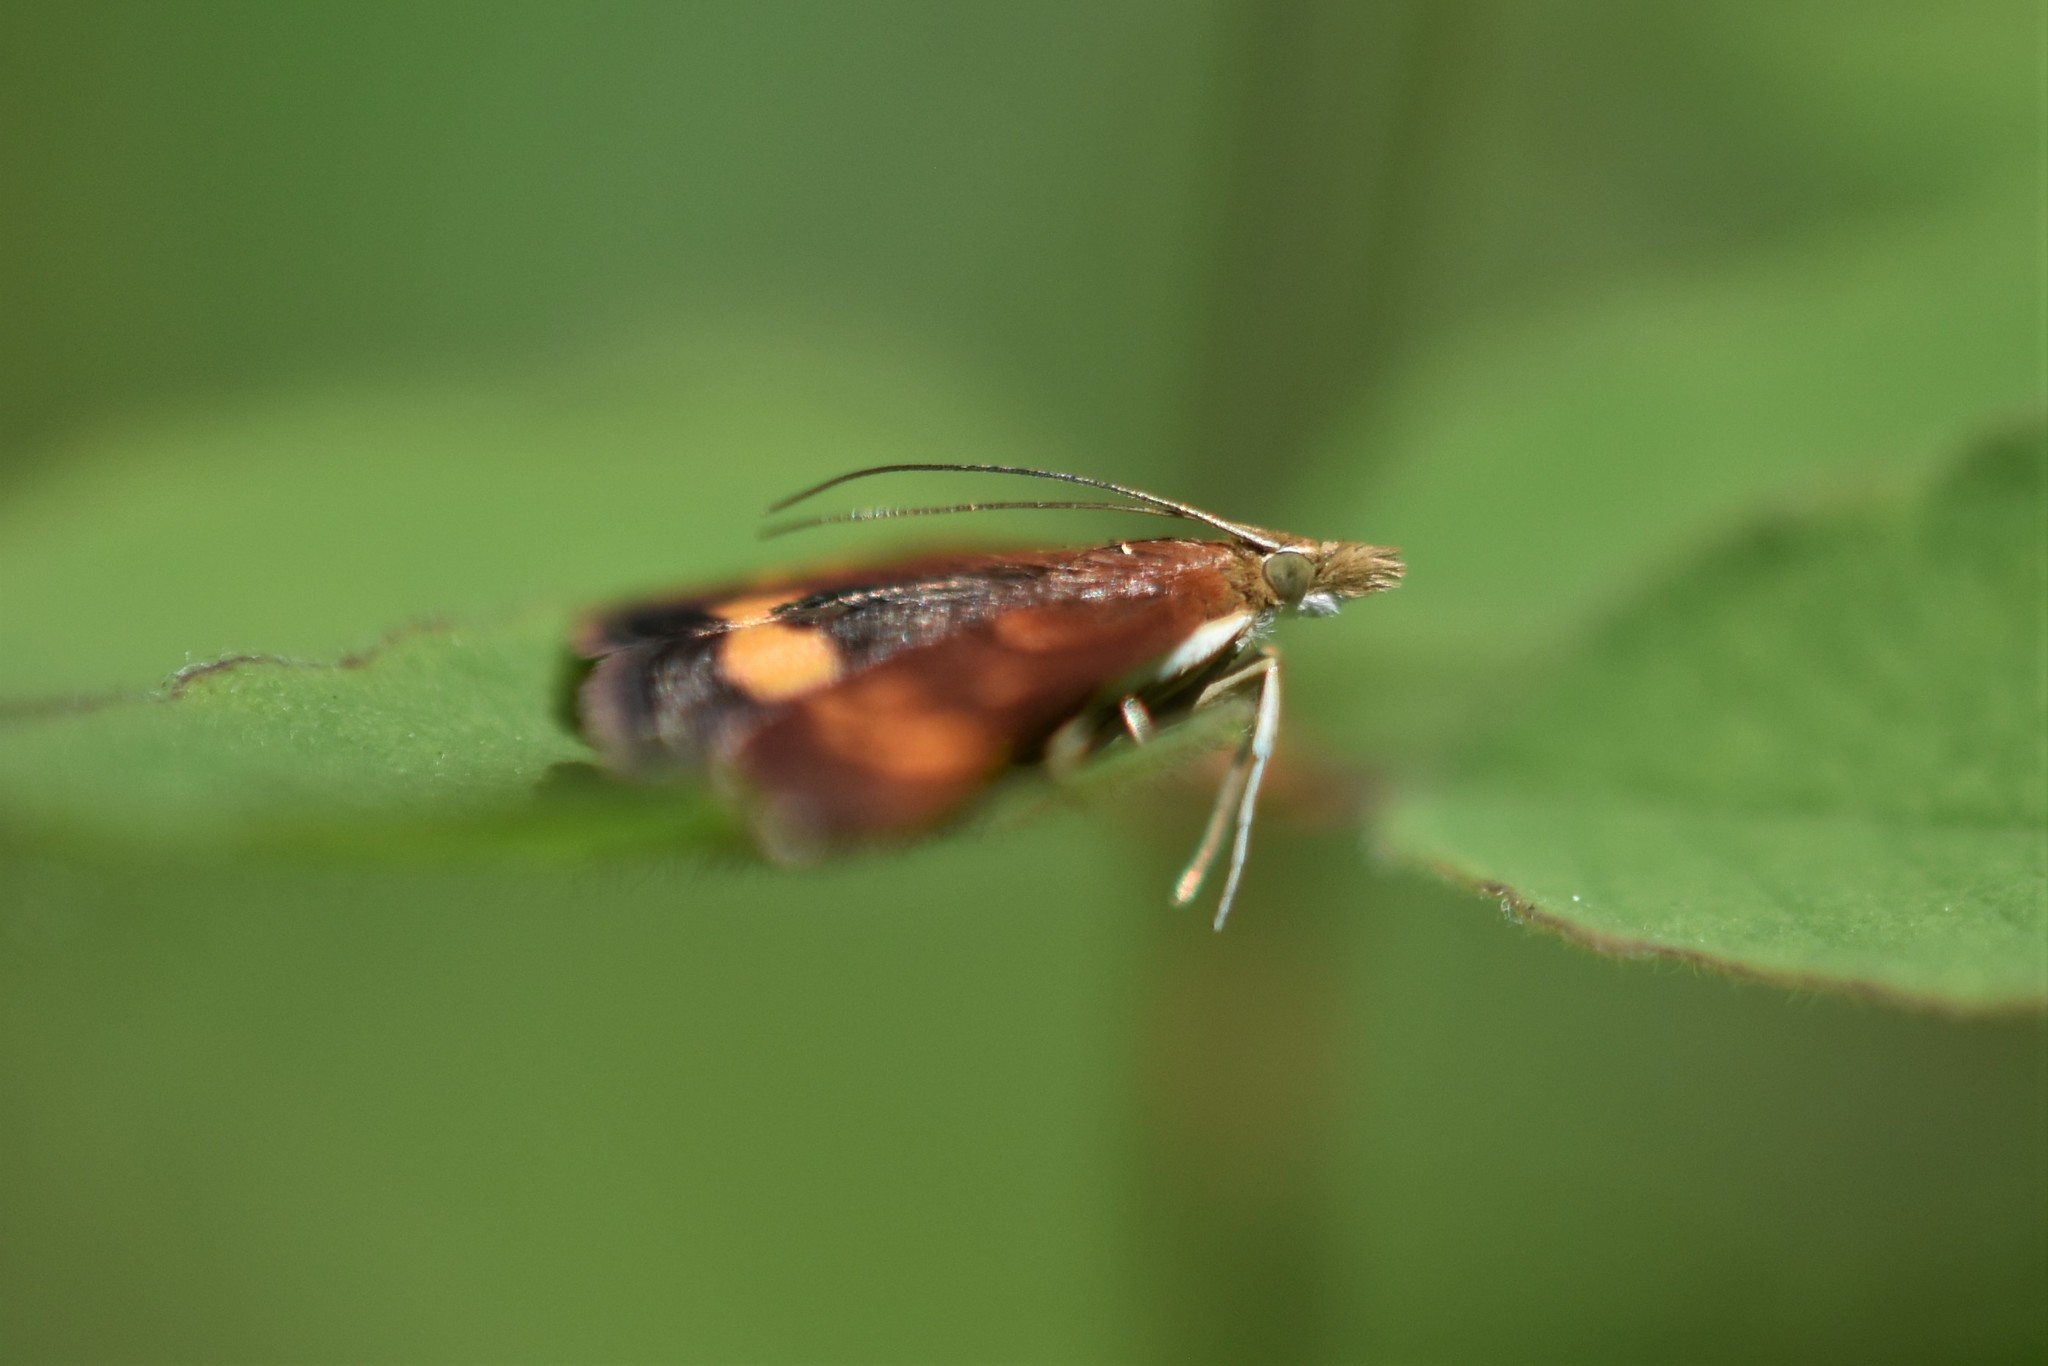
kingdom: Animalia
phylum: Arthropoda
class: Insecta
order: Lepidoptera
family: Crambidae
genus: Pyrausta
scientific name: Pyrausta californicalis
